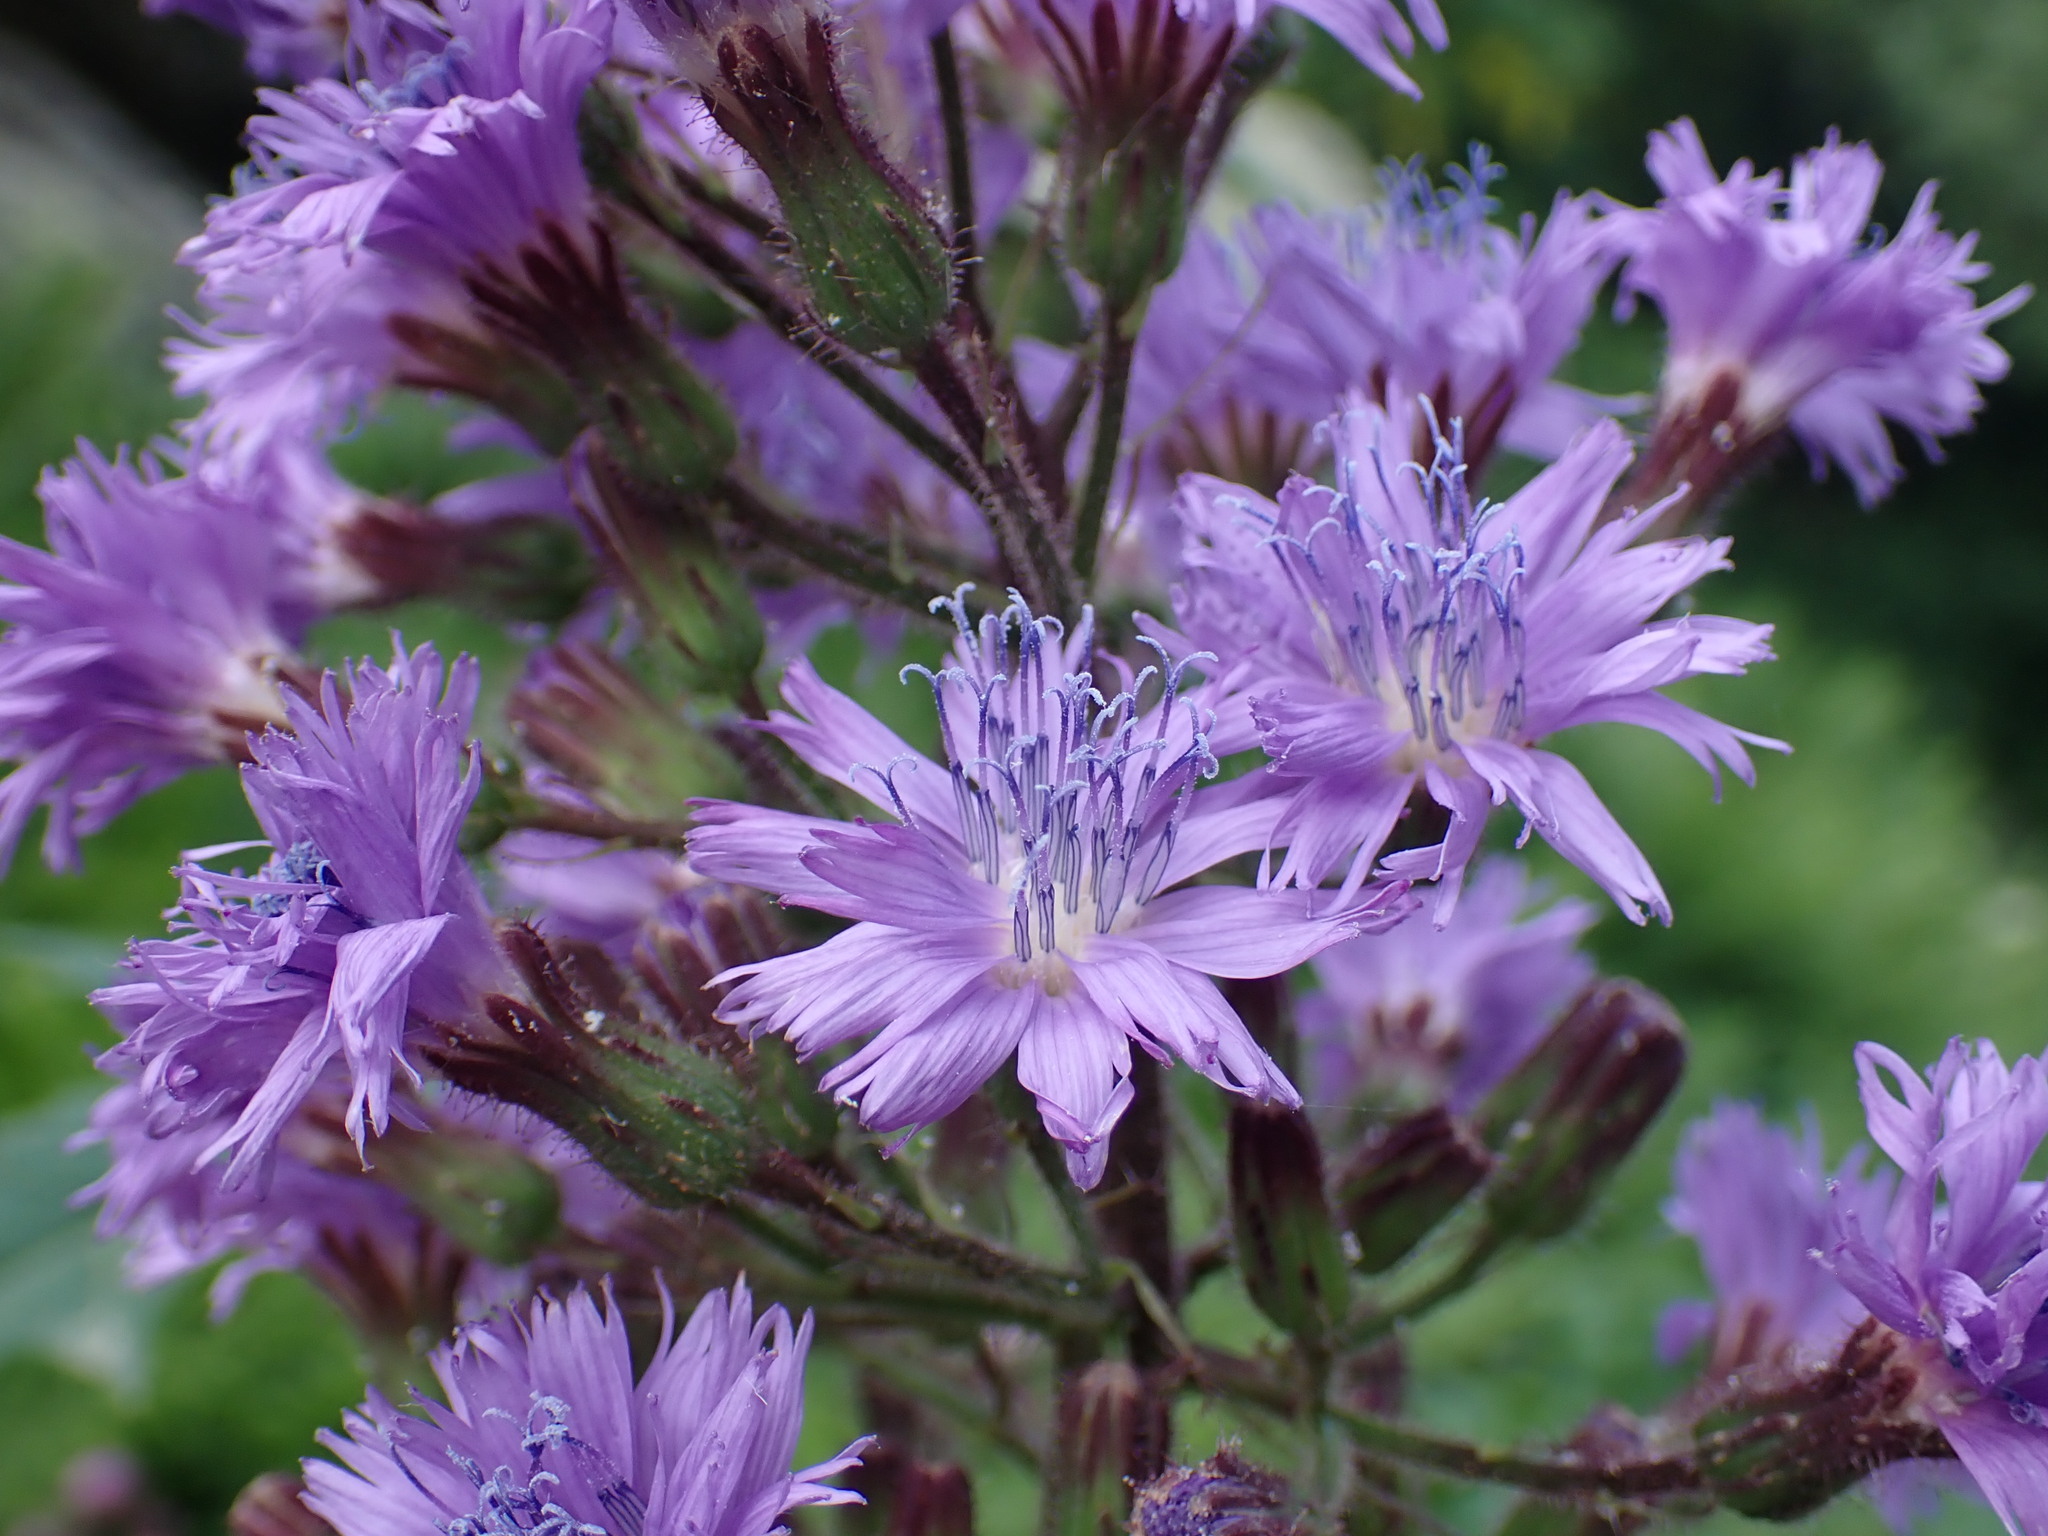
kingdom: Plantae
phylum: Tracheophyta
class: Magnoliopsida
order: Asterales
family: Asteraceae
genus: Cicerbita
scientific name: Cicerbita alpina
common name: Alpine blue-sow-thistle
